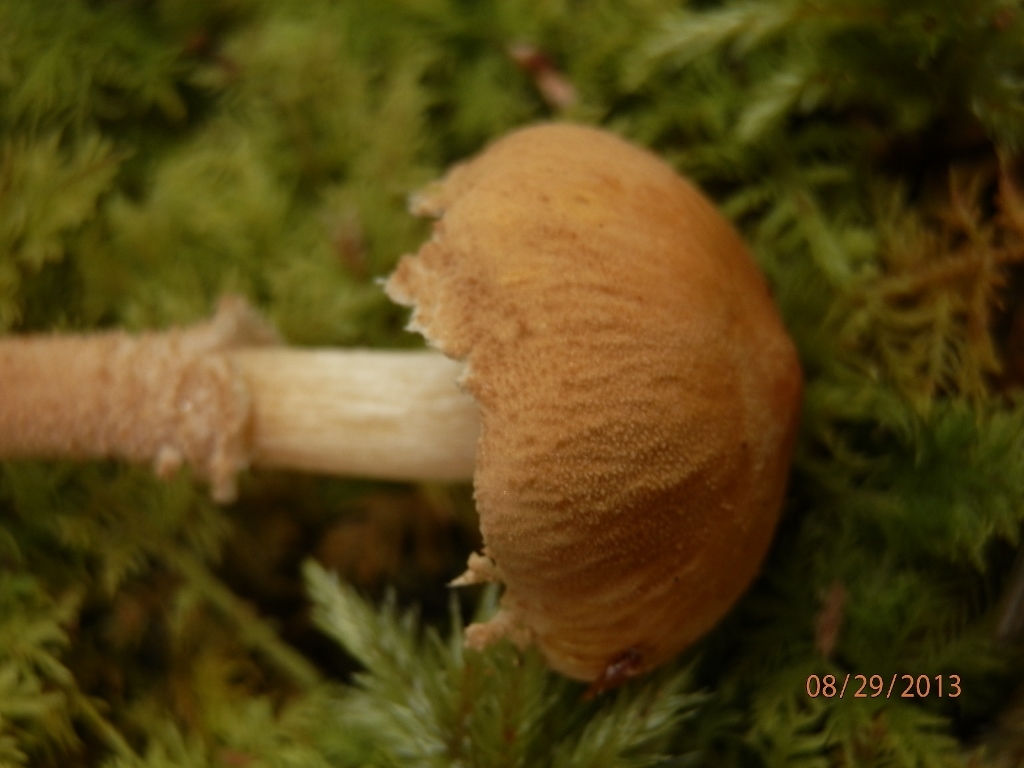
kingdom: Fungi
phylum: Basidiomycota
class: Agaricomycetes
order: Agaricales
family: Tricholomataceae
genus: Cystoderma
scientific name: Cystoderma amianthinum
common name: Earthy powdercap
